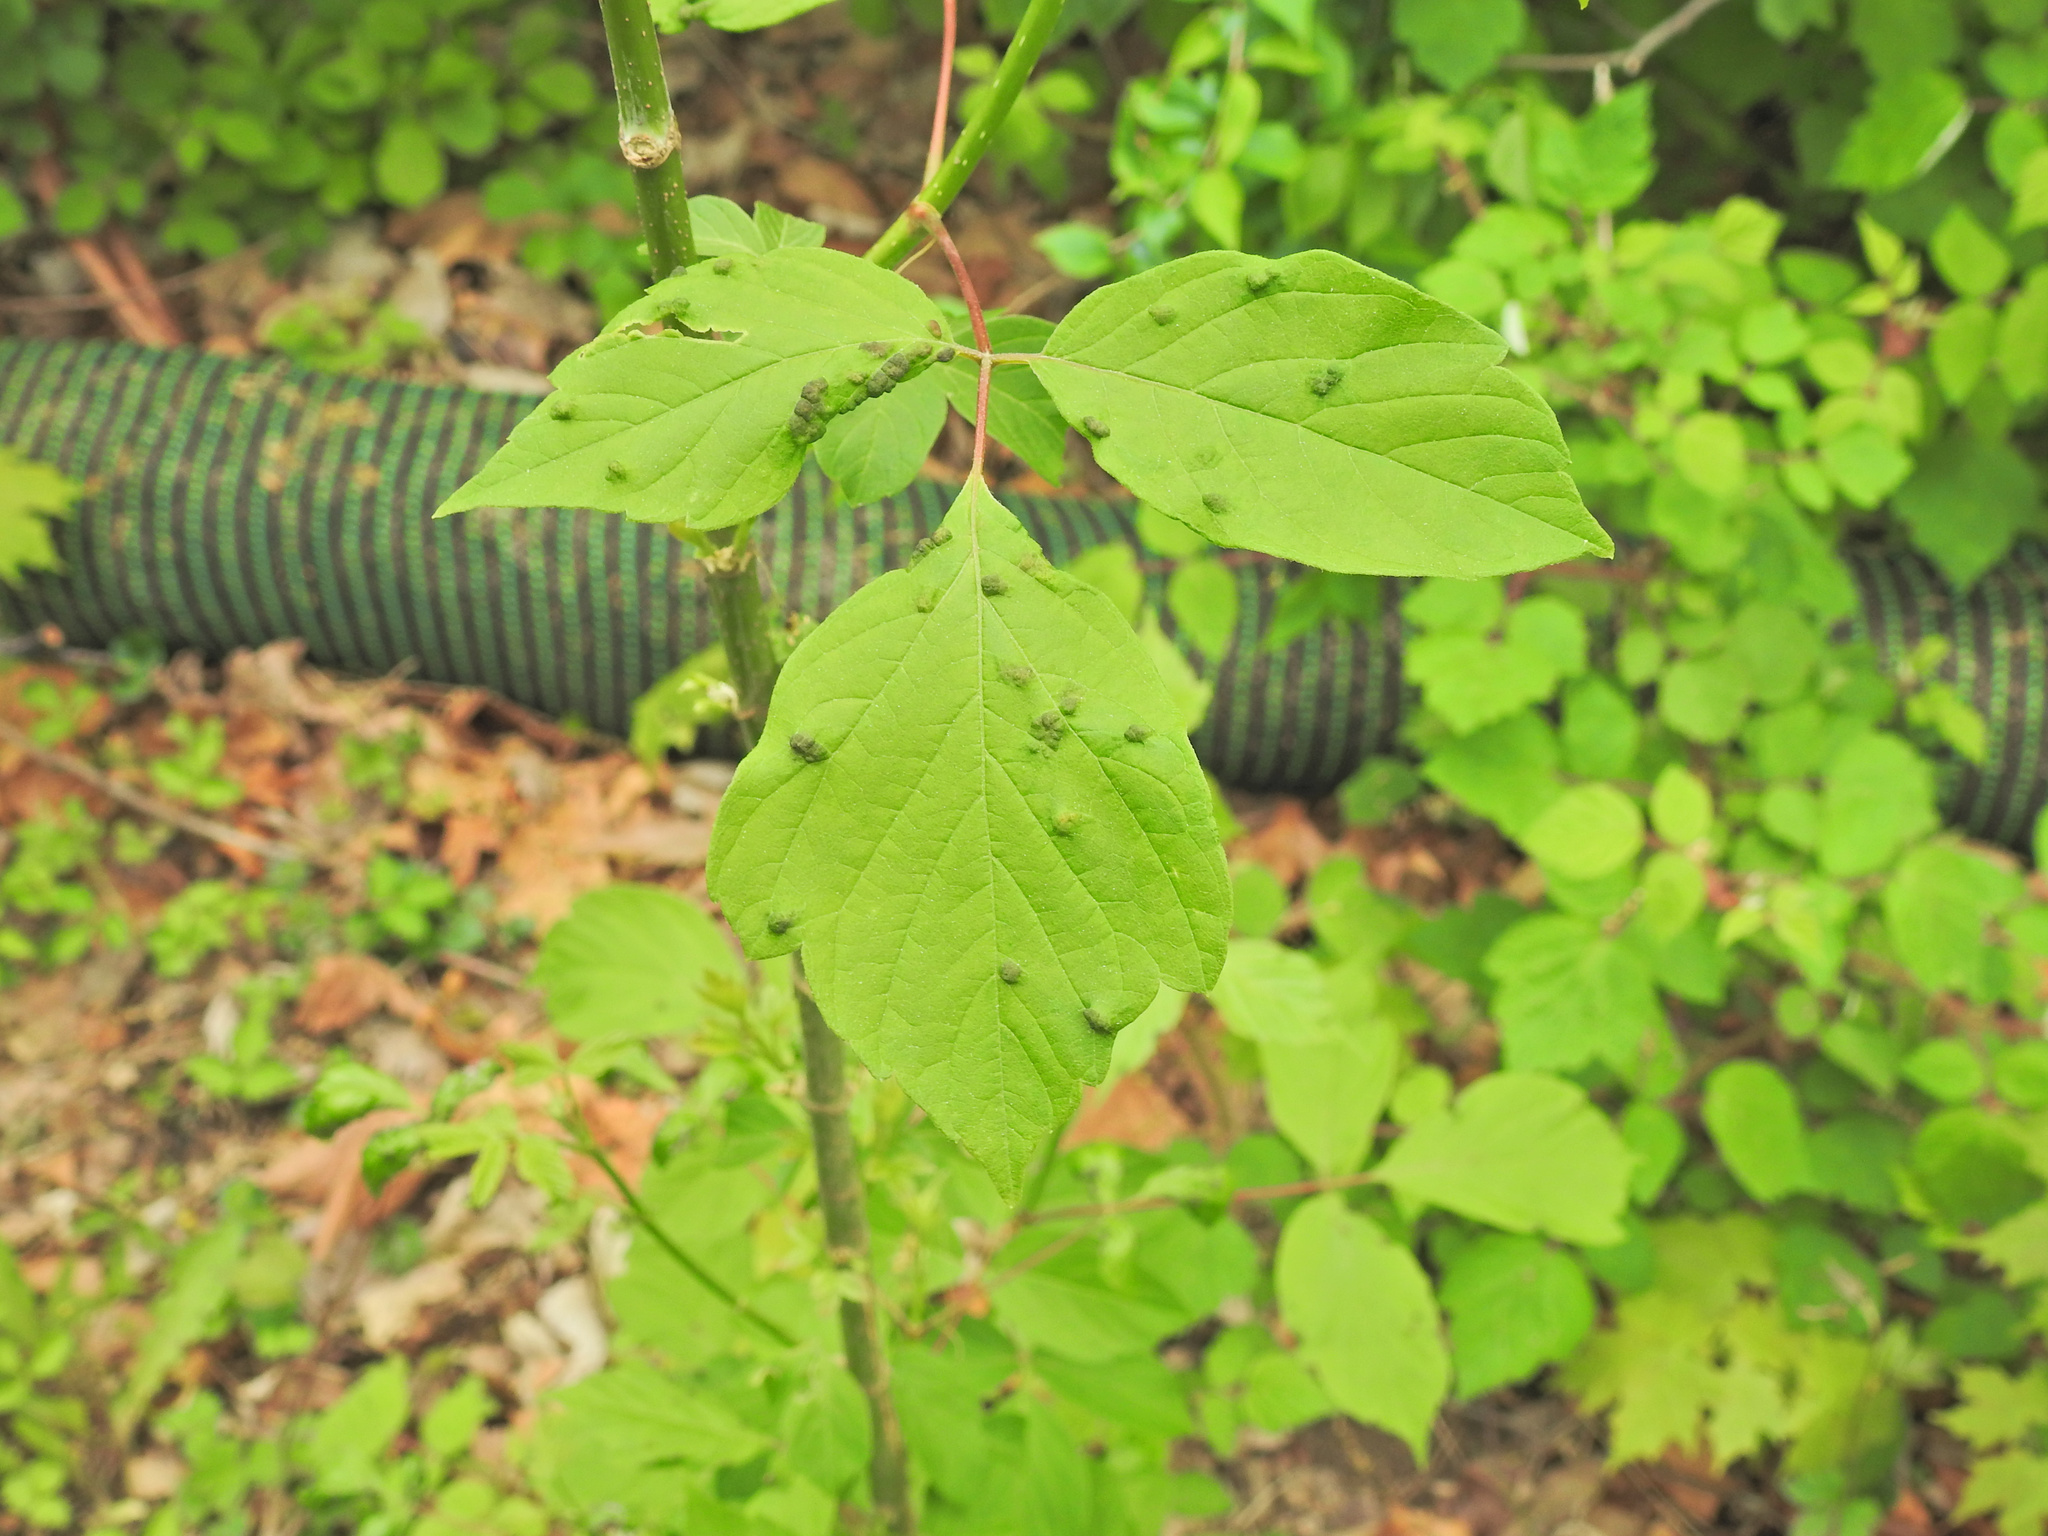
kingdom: Animalia
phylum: Arthropoda
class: Arachnida
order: Trombidiformes
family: Eriophyidae
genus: Aceria
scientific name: Aceria
